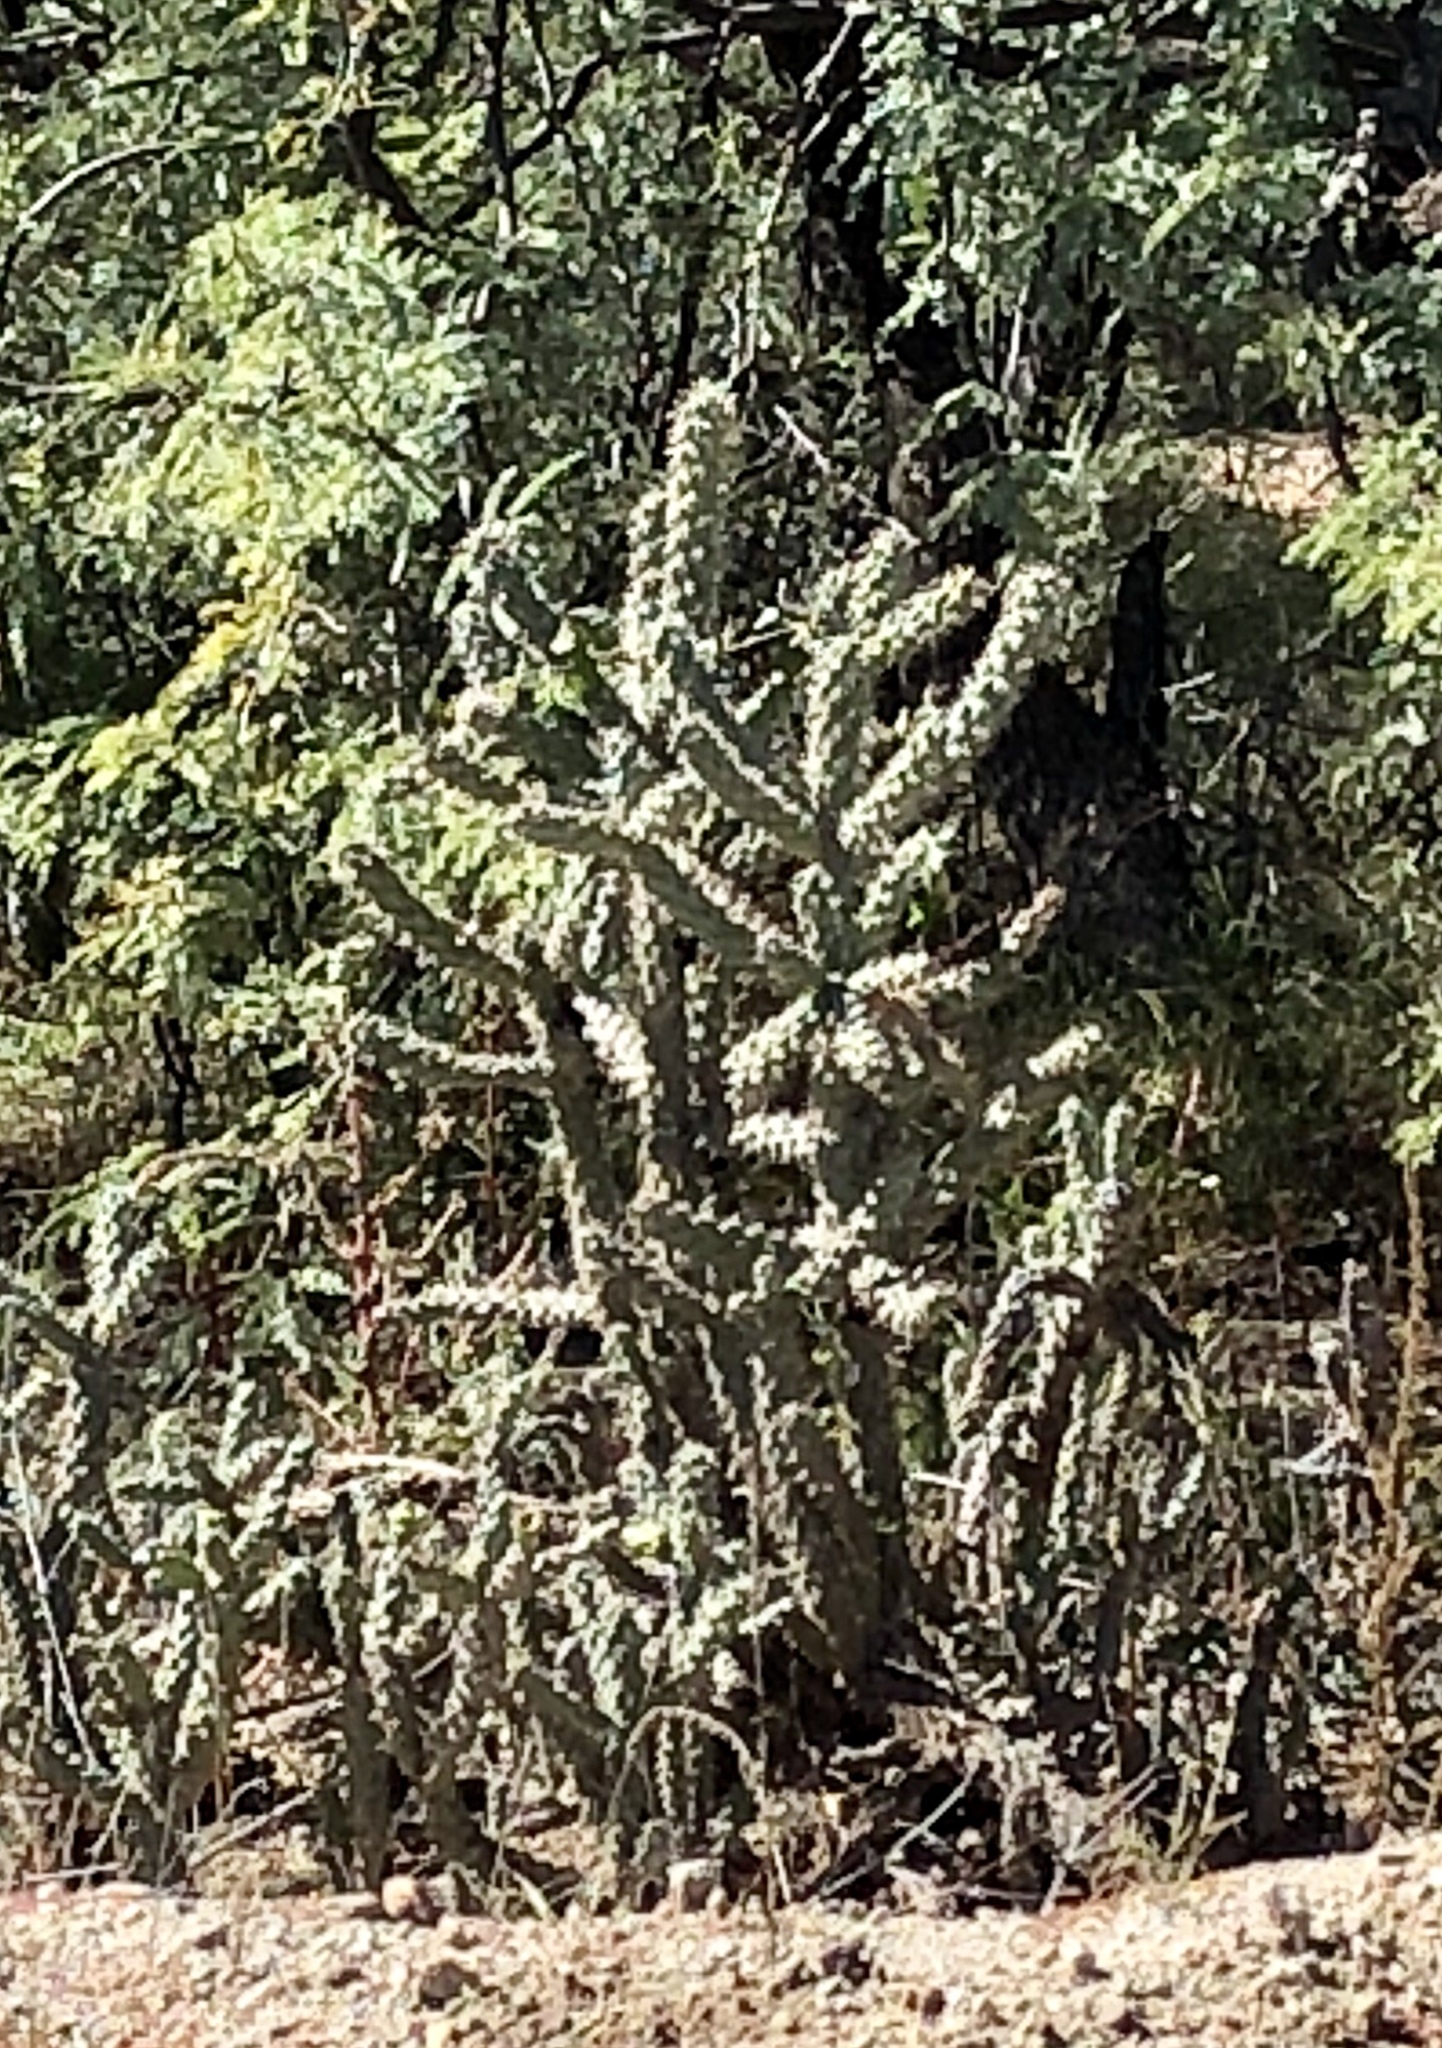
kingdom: Plantae
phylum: Tracheophyta
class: Magnoliopsida
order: Caryophyllales
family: Cactaceae
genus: Cylindropuntia
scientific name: Cylindropuntia imbricata
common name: Candelabrum cactus
